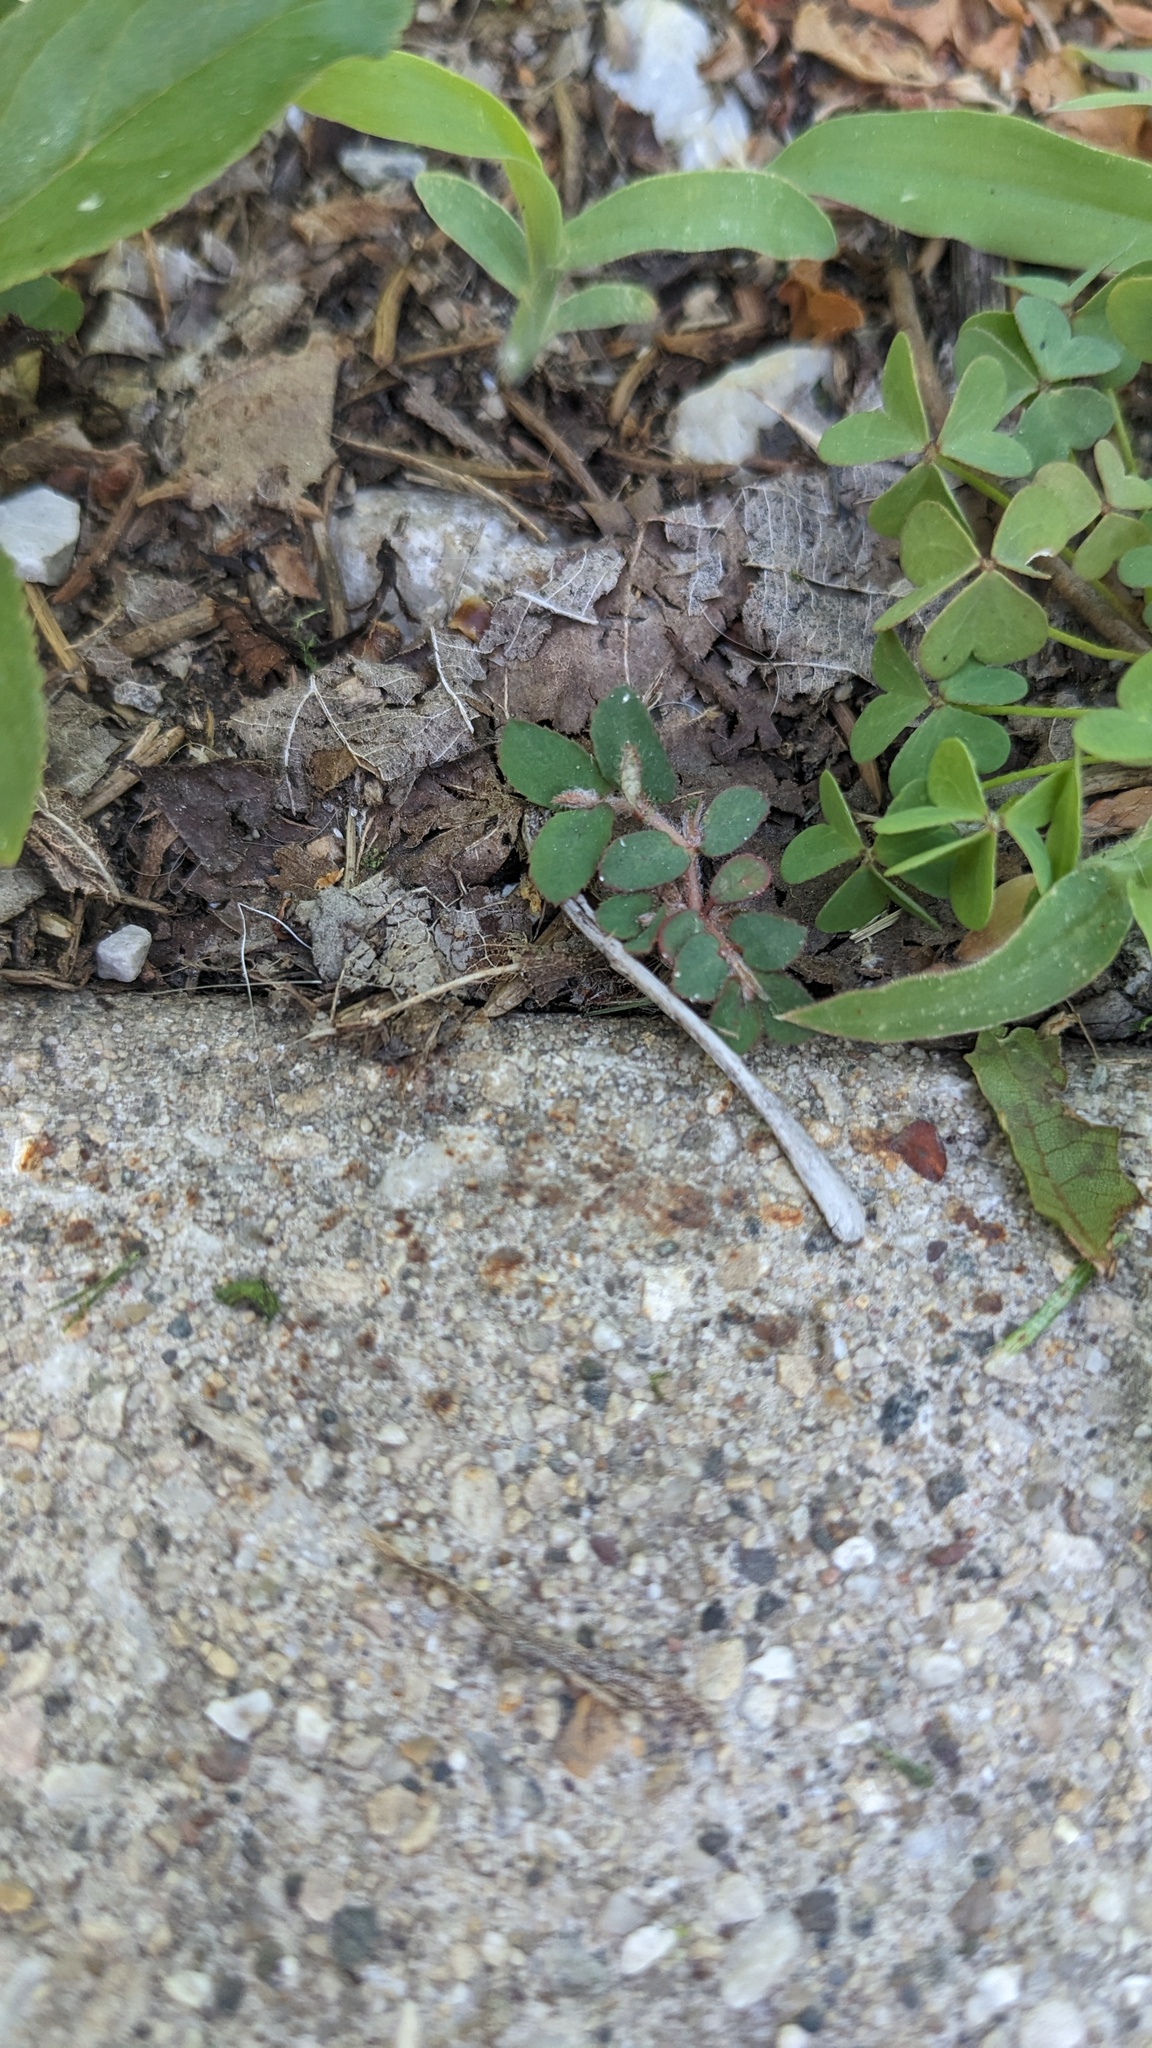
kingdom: Plantae
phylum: Tracheophyta
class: Magnoliopsida
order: Malpighiales
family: Euphorbiaceae
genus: Euphorbia
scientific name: Euphorbia maculata
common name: Spotted spurge
